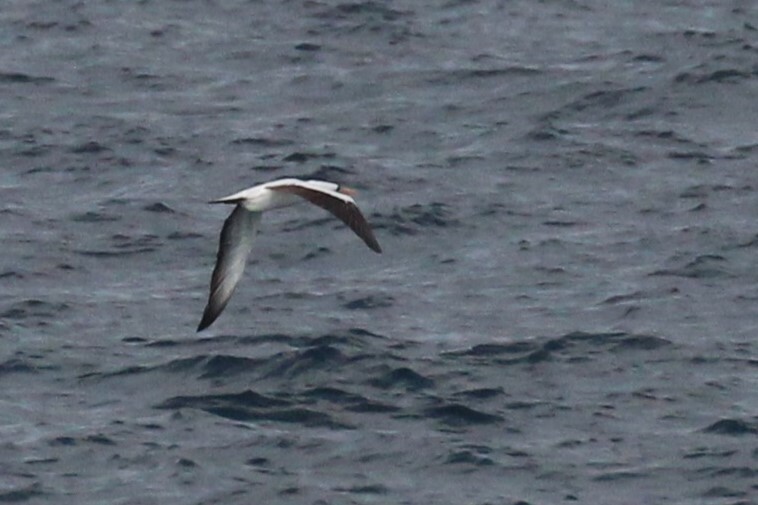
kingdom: Animalia
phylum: Chordata
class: Aves
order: Suliformes
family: Sulidae
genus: Sula
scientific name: Sula granti
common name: Nazca booby
